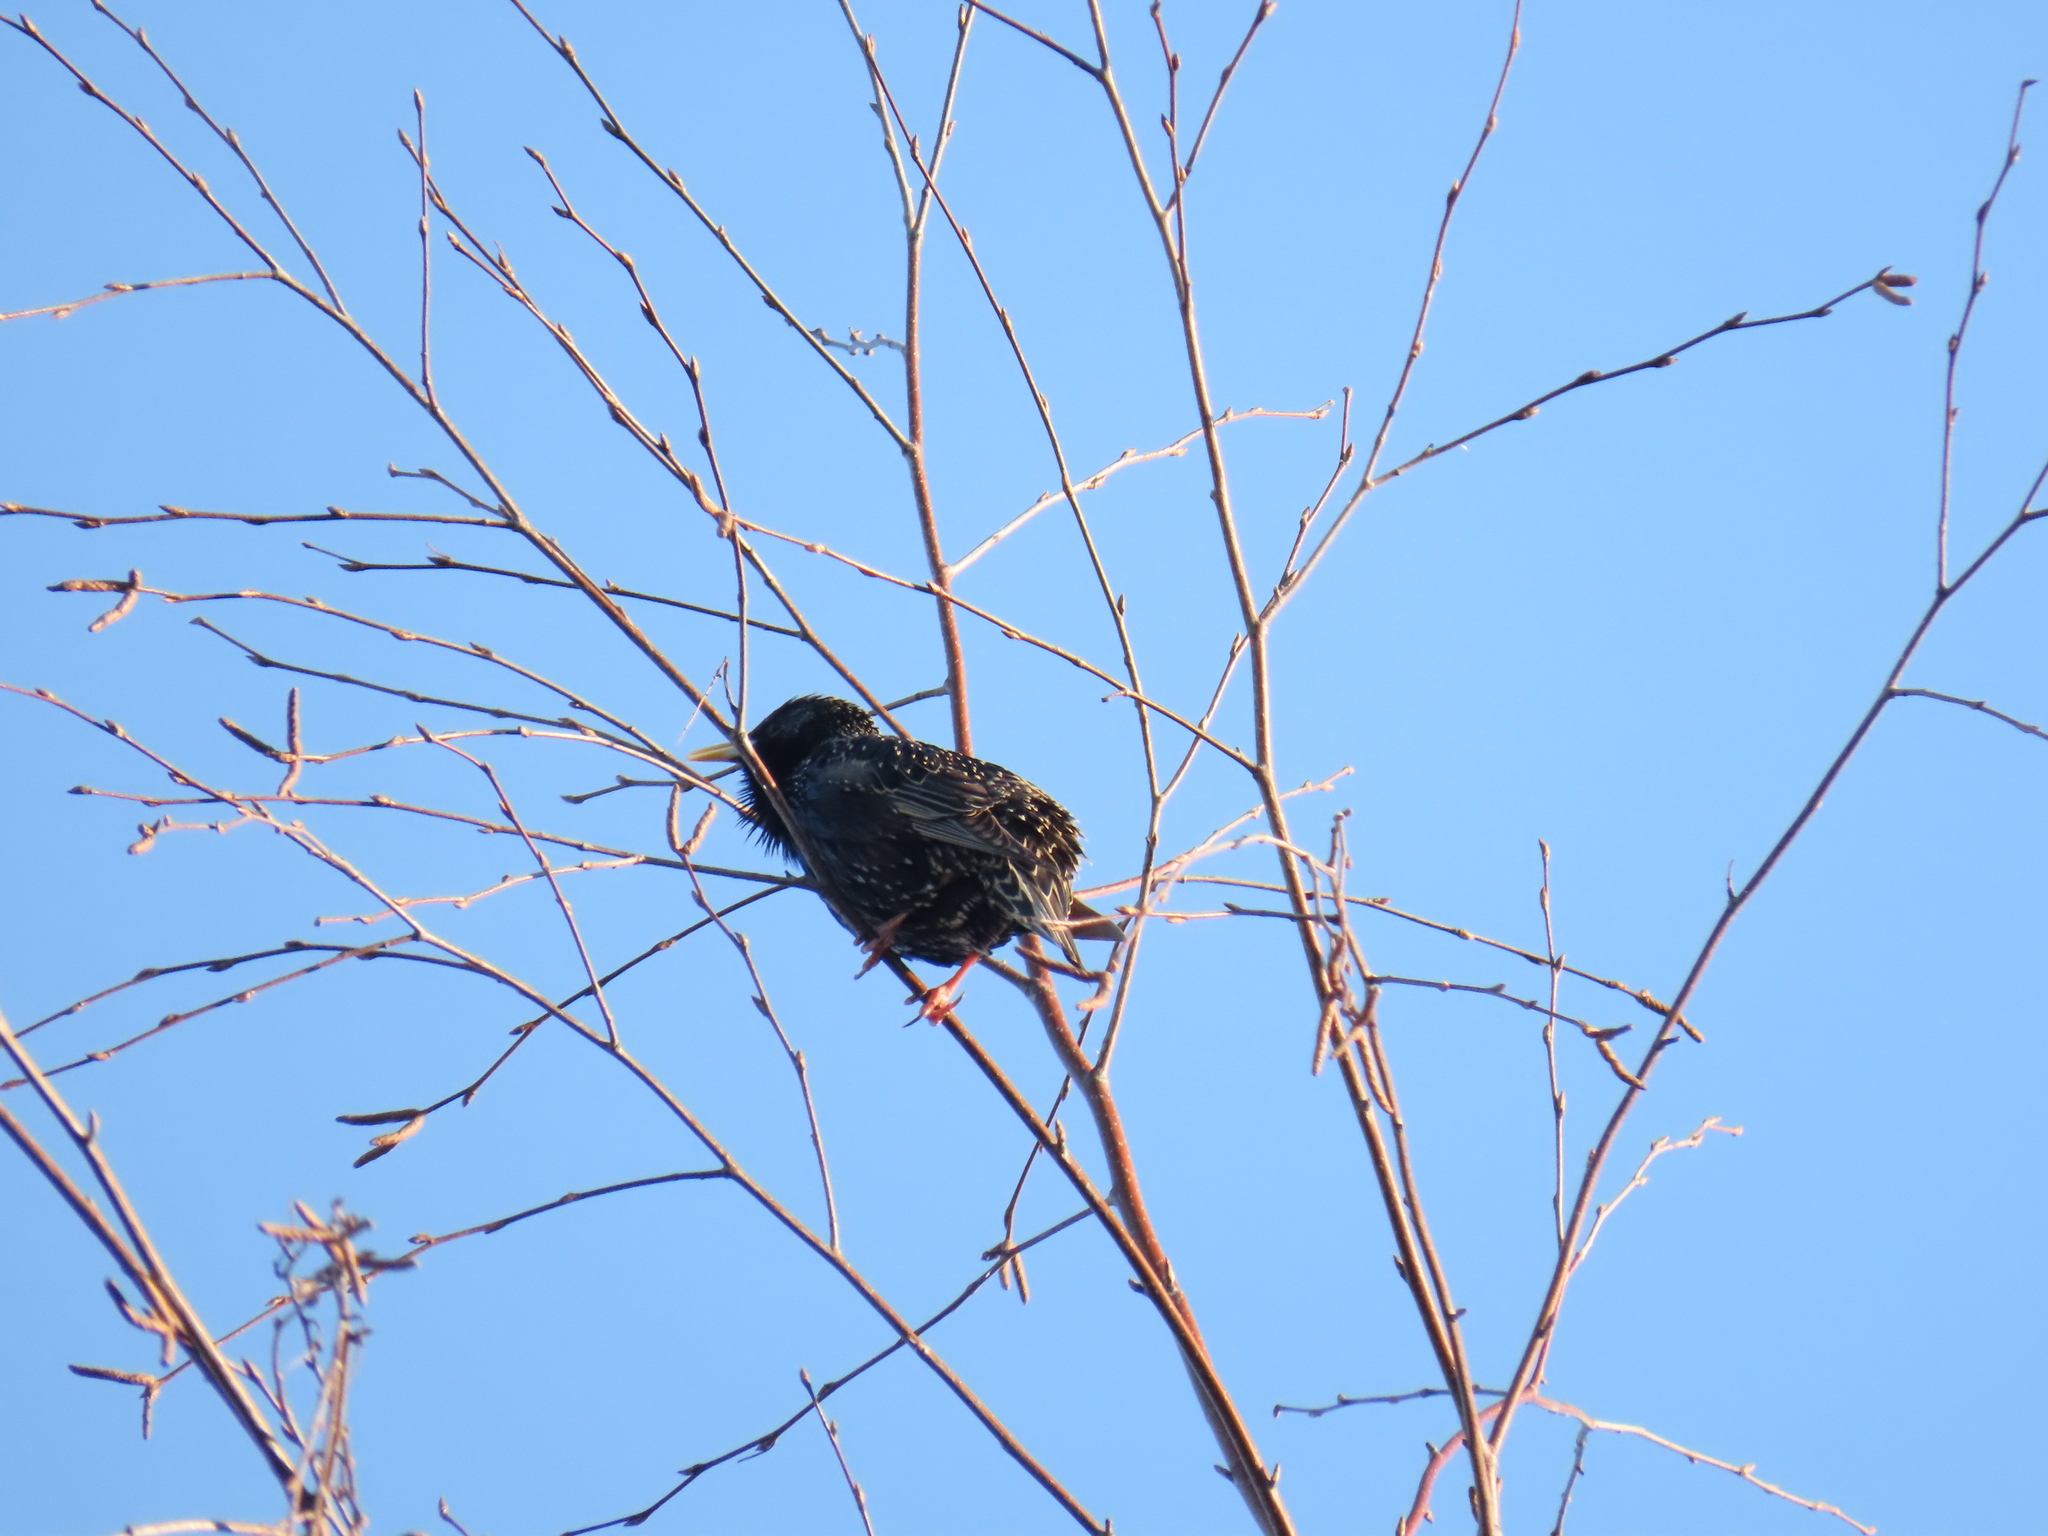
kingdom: Animalia
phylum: Chordata
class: Aves
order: Passeriformes
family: Sturnidae
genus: Sturnus
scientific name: Sturnus vulgaris
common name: Common starling
